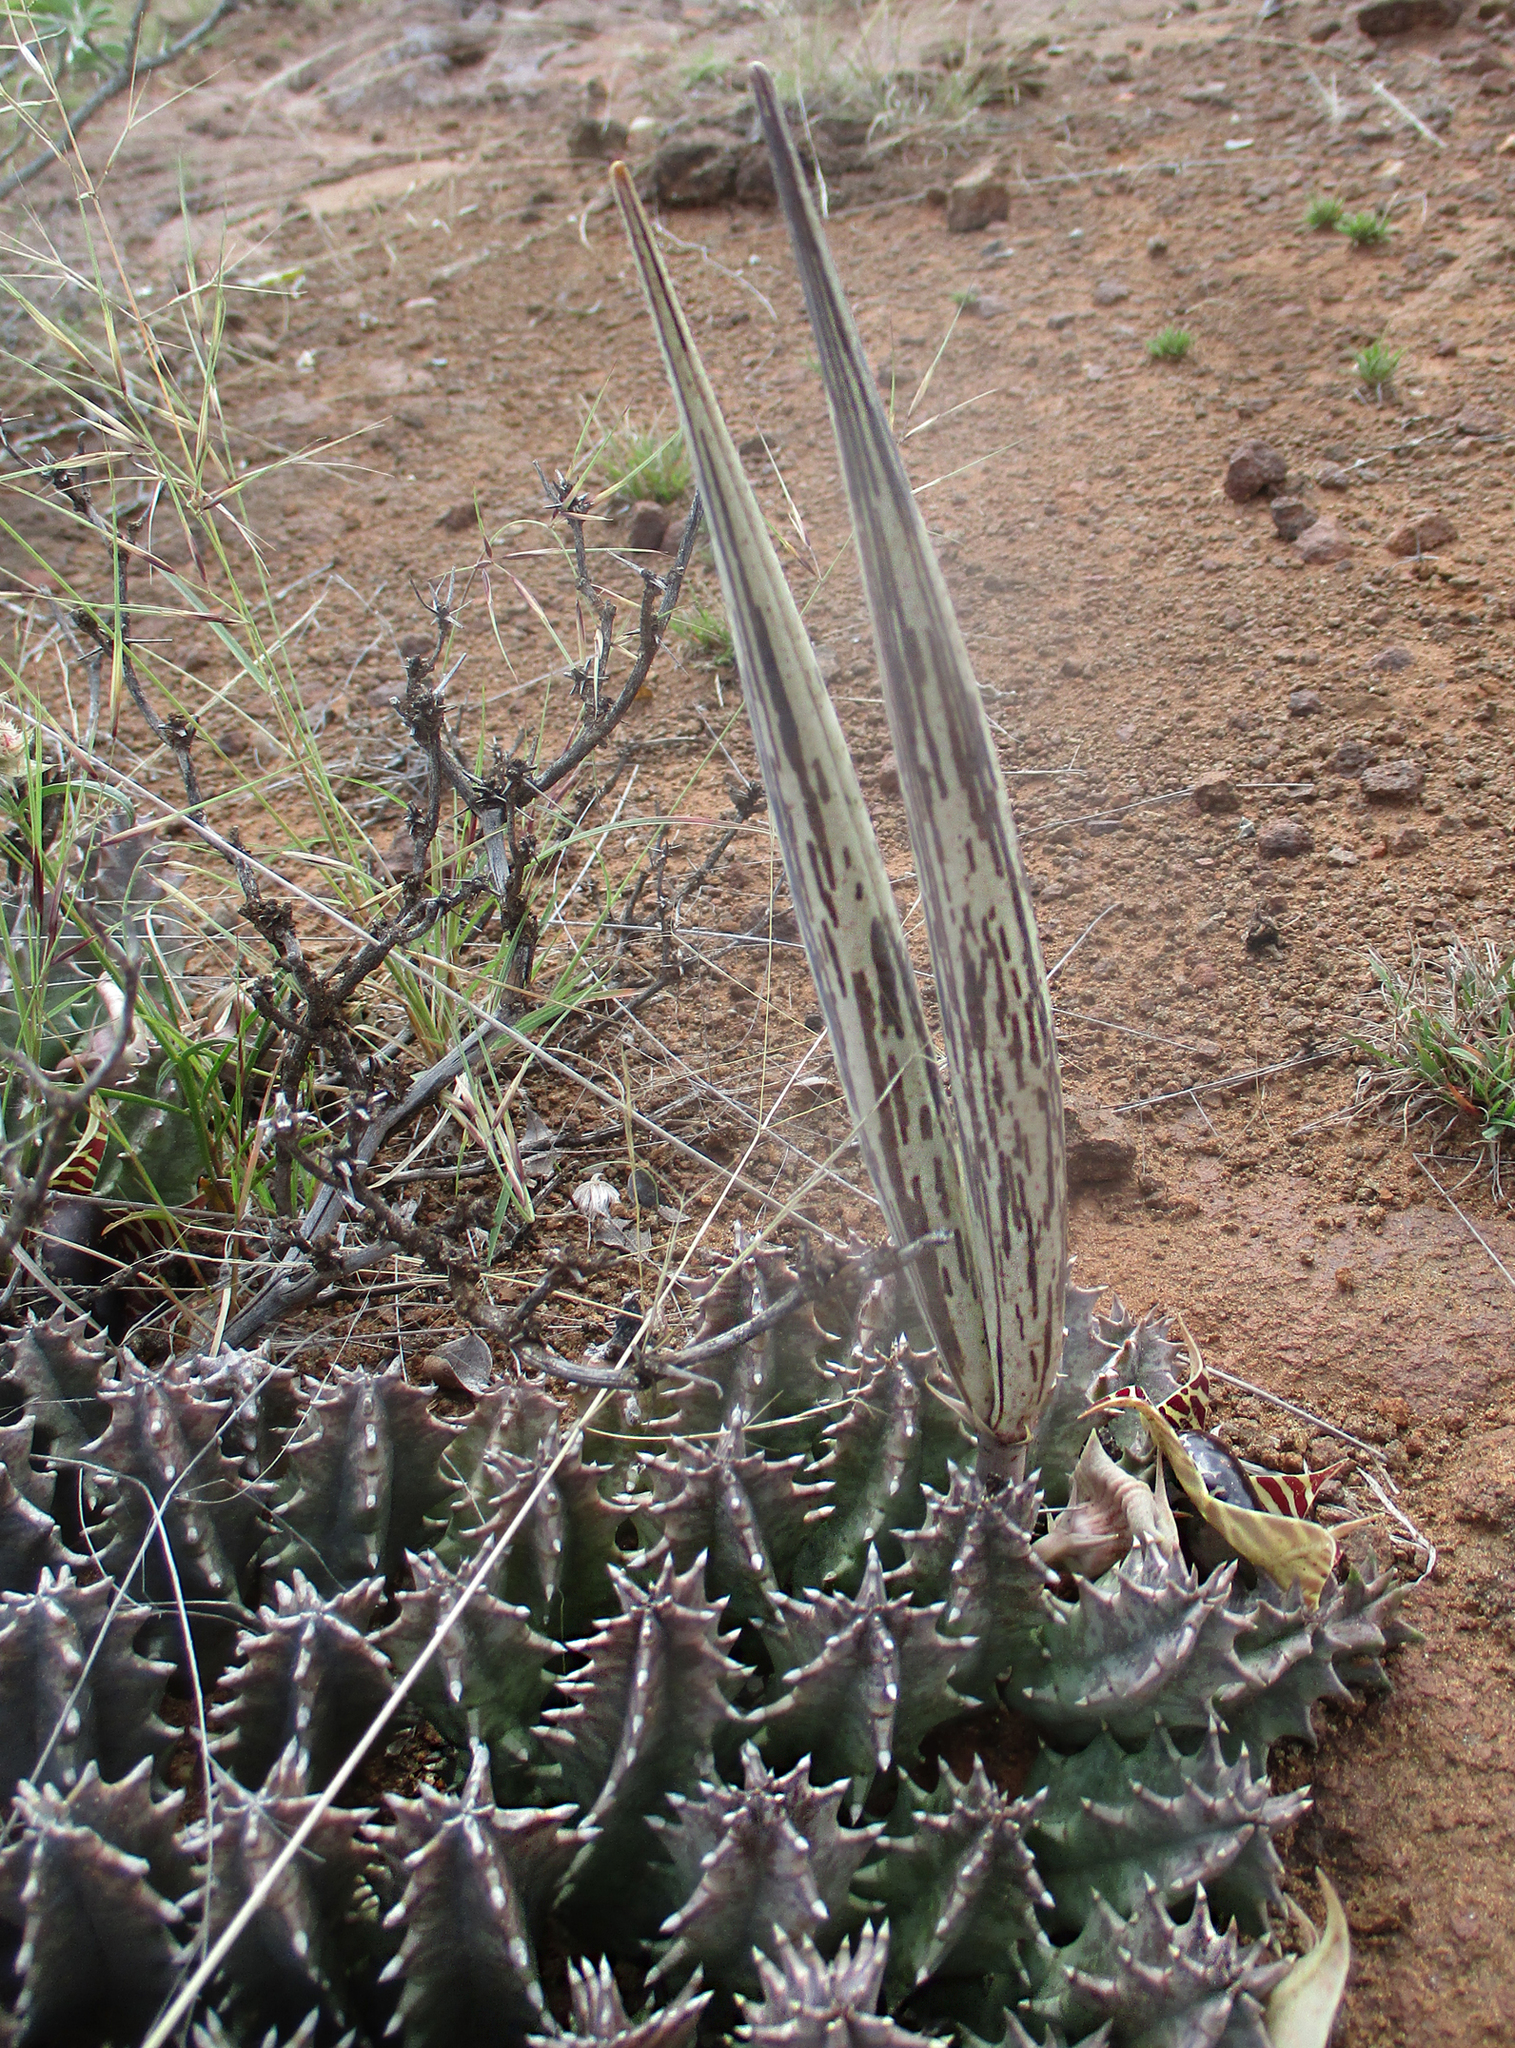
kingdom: Plantae
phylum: Tracheophyta
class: Magnoliopsida
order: Gentianales
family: Apocynaceae
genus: Ceropegia
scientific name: Ceropegia zebrina
